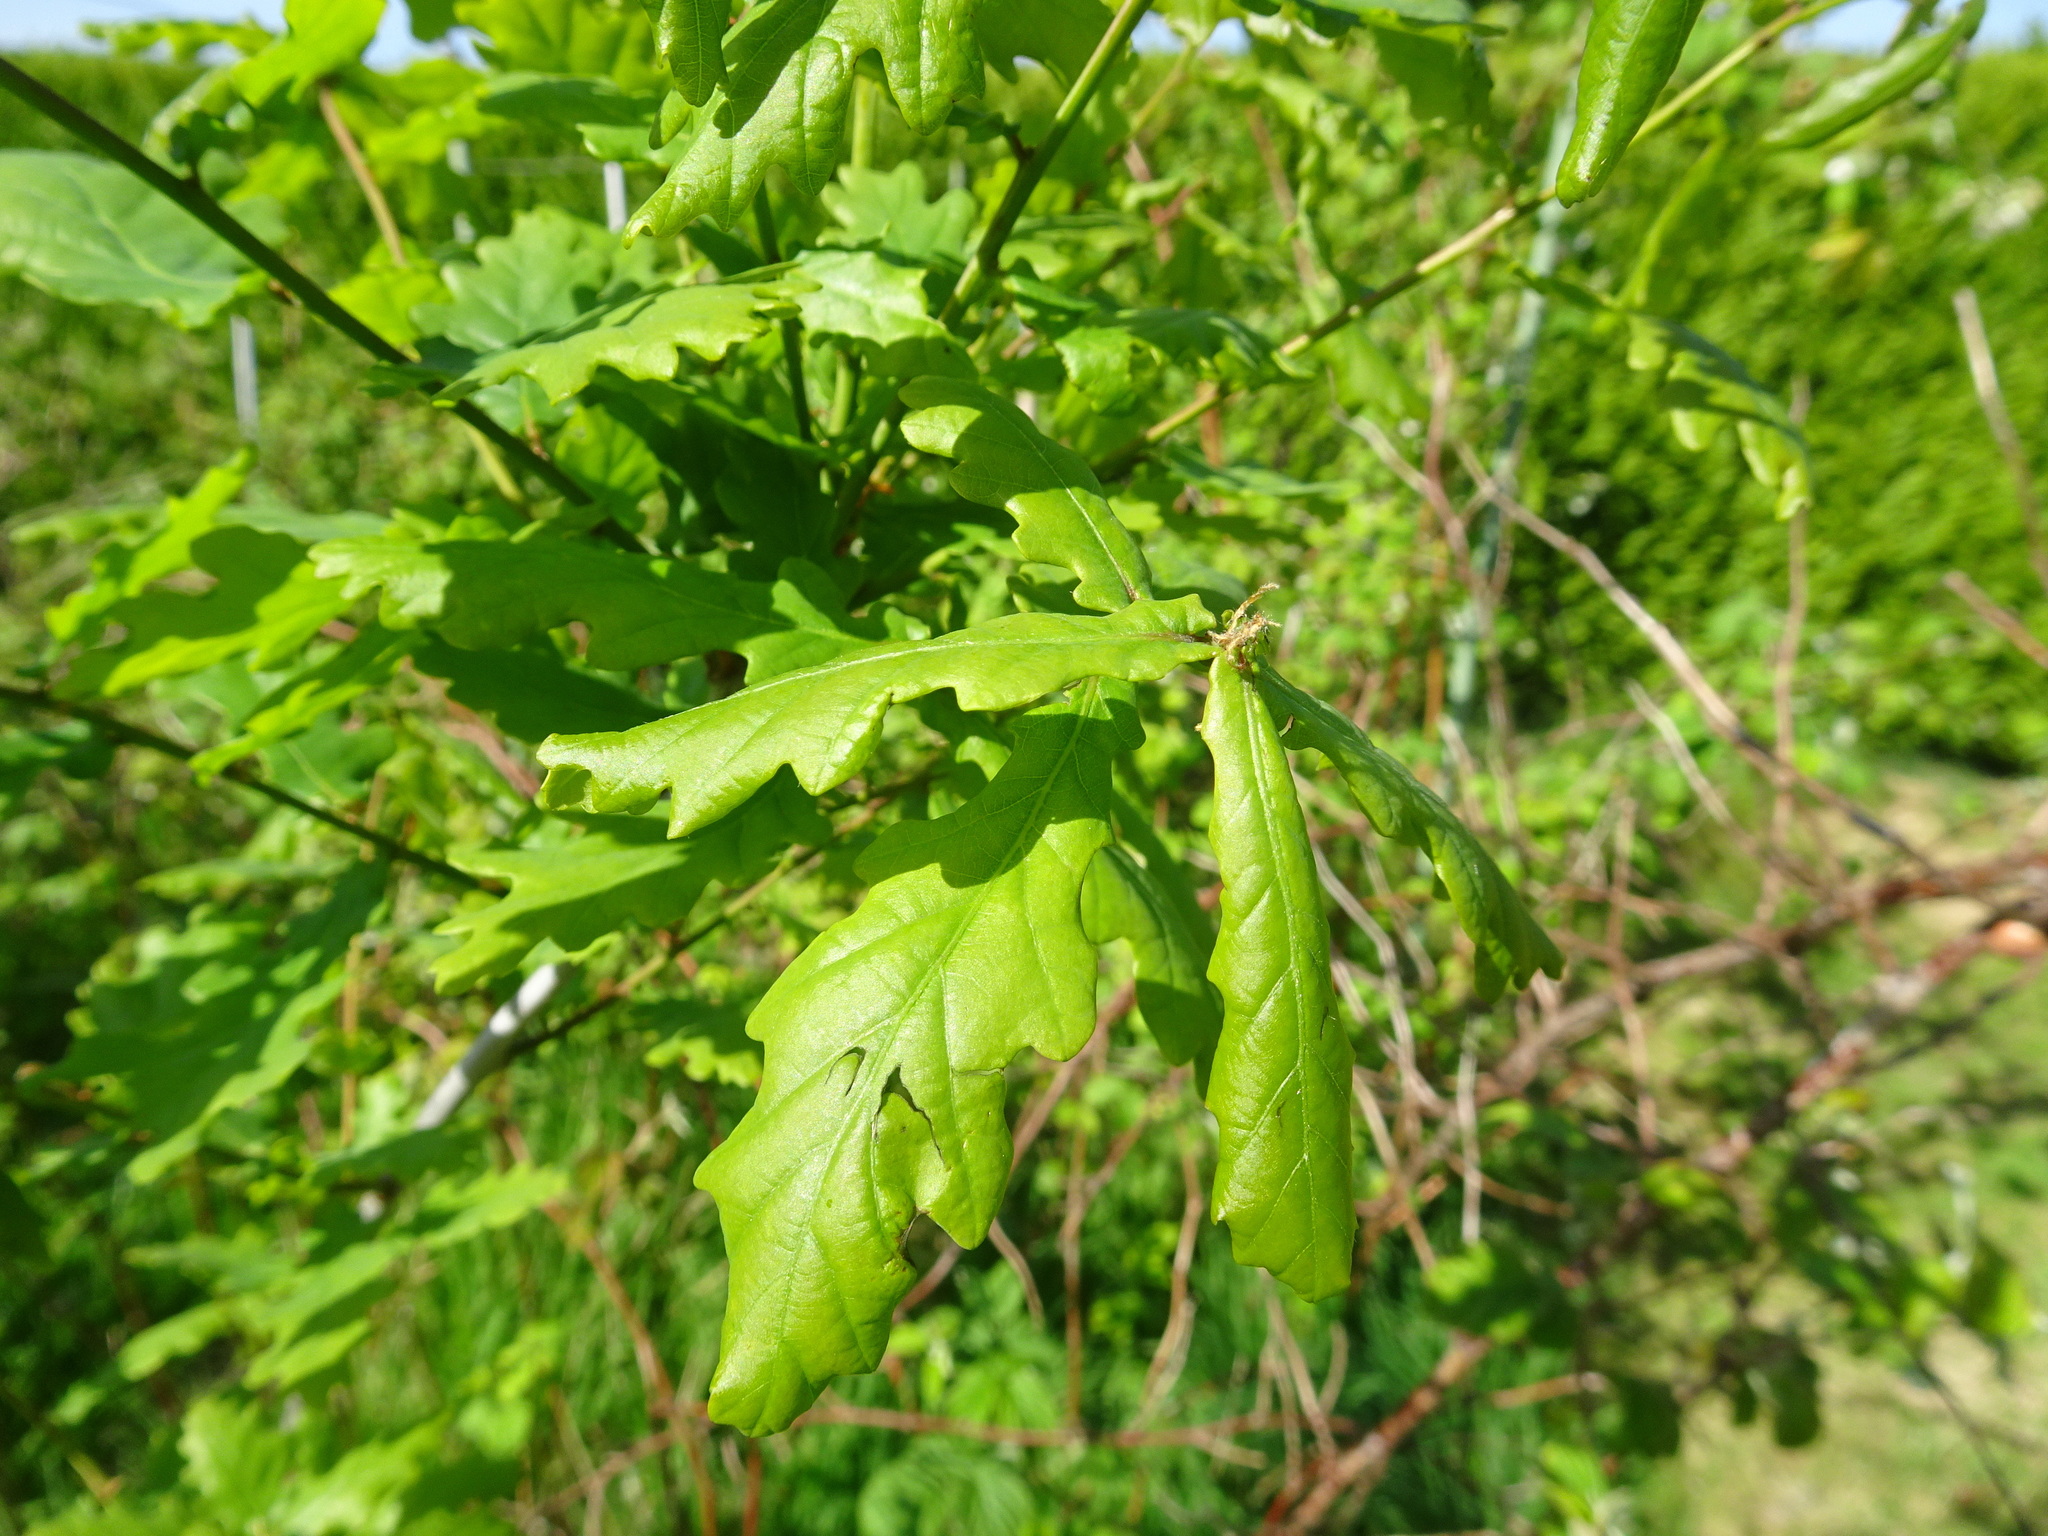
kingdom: Plantae
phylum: Tracheophyta
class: Magnoliopsida
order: Fagales
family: Fagaceae
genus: Quercus
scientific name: Quercus robur
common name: Pedunculate oak
